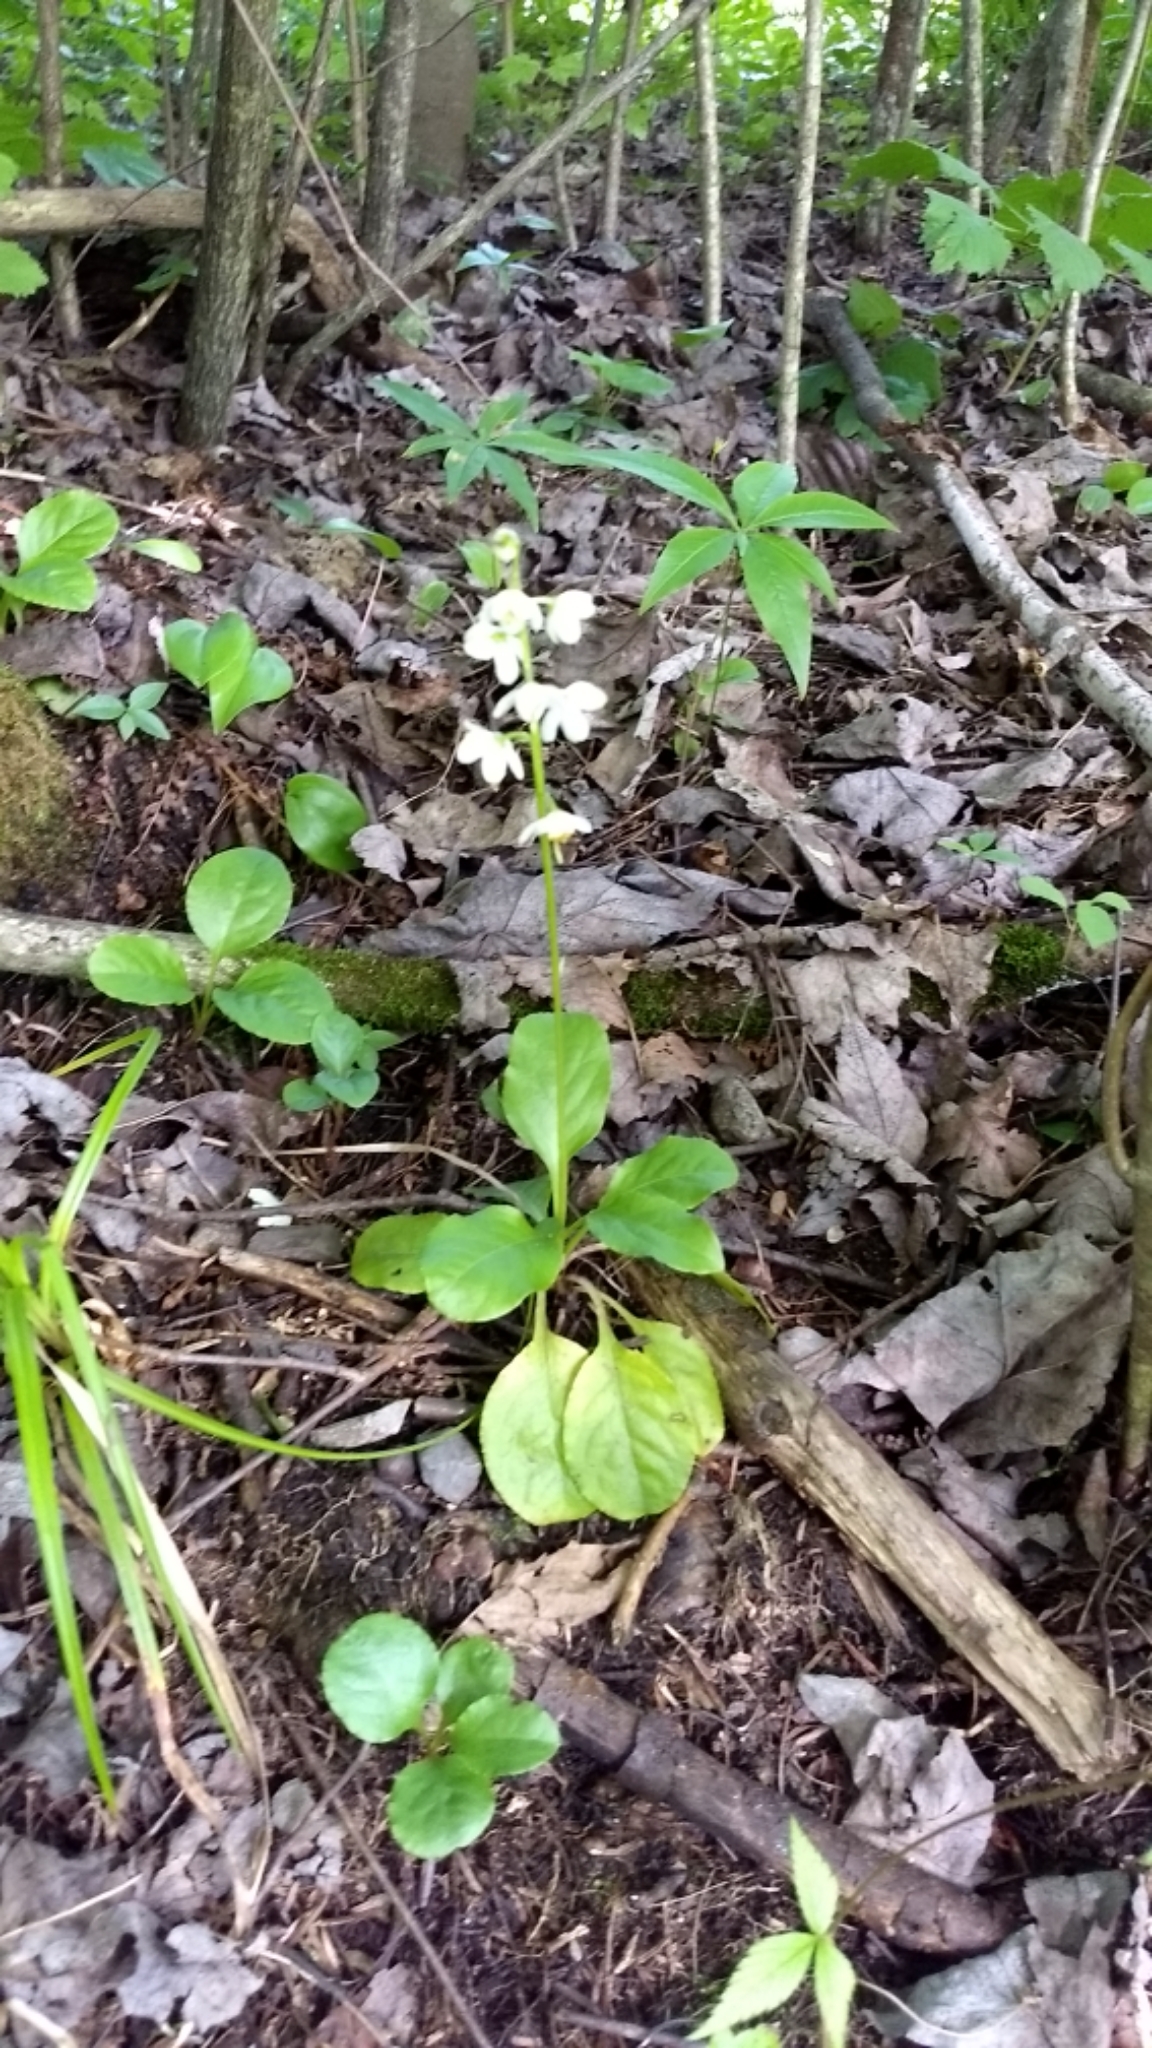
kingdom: Plantae
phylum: Tracheophyta
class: Magnoliopsida
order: Ericales
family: Ericaceae
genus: Pyrola
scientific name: Pyrola elliptica
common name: Shinleaf
